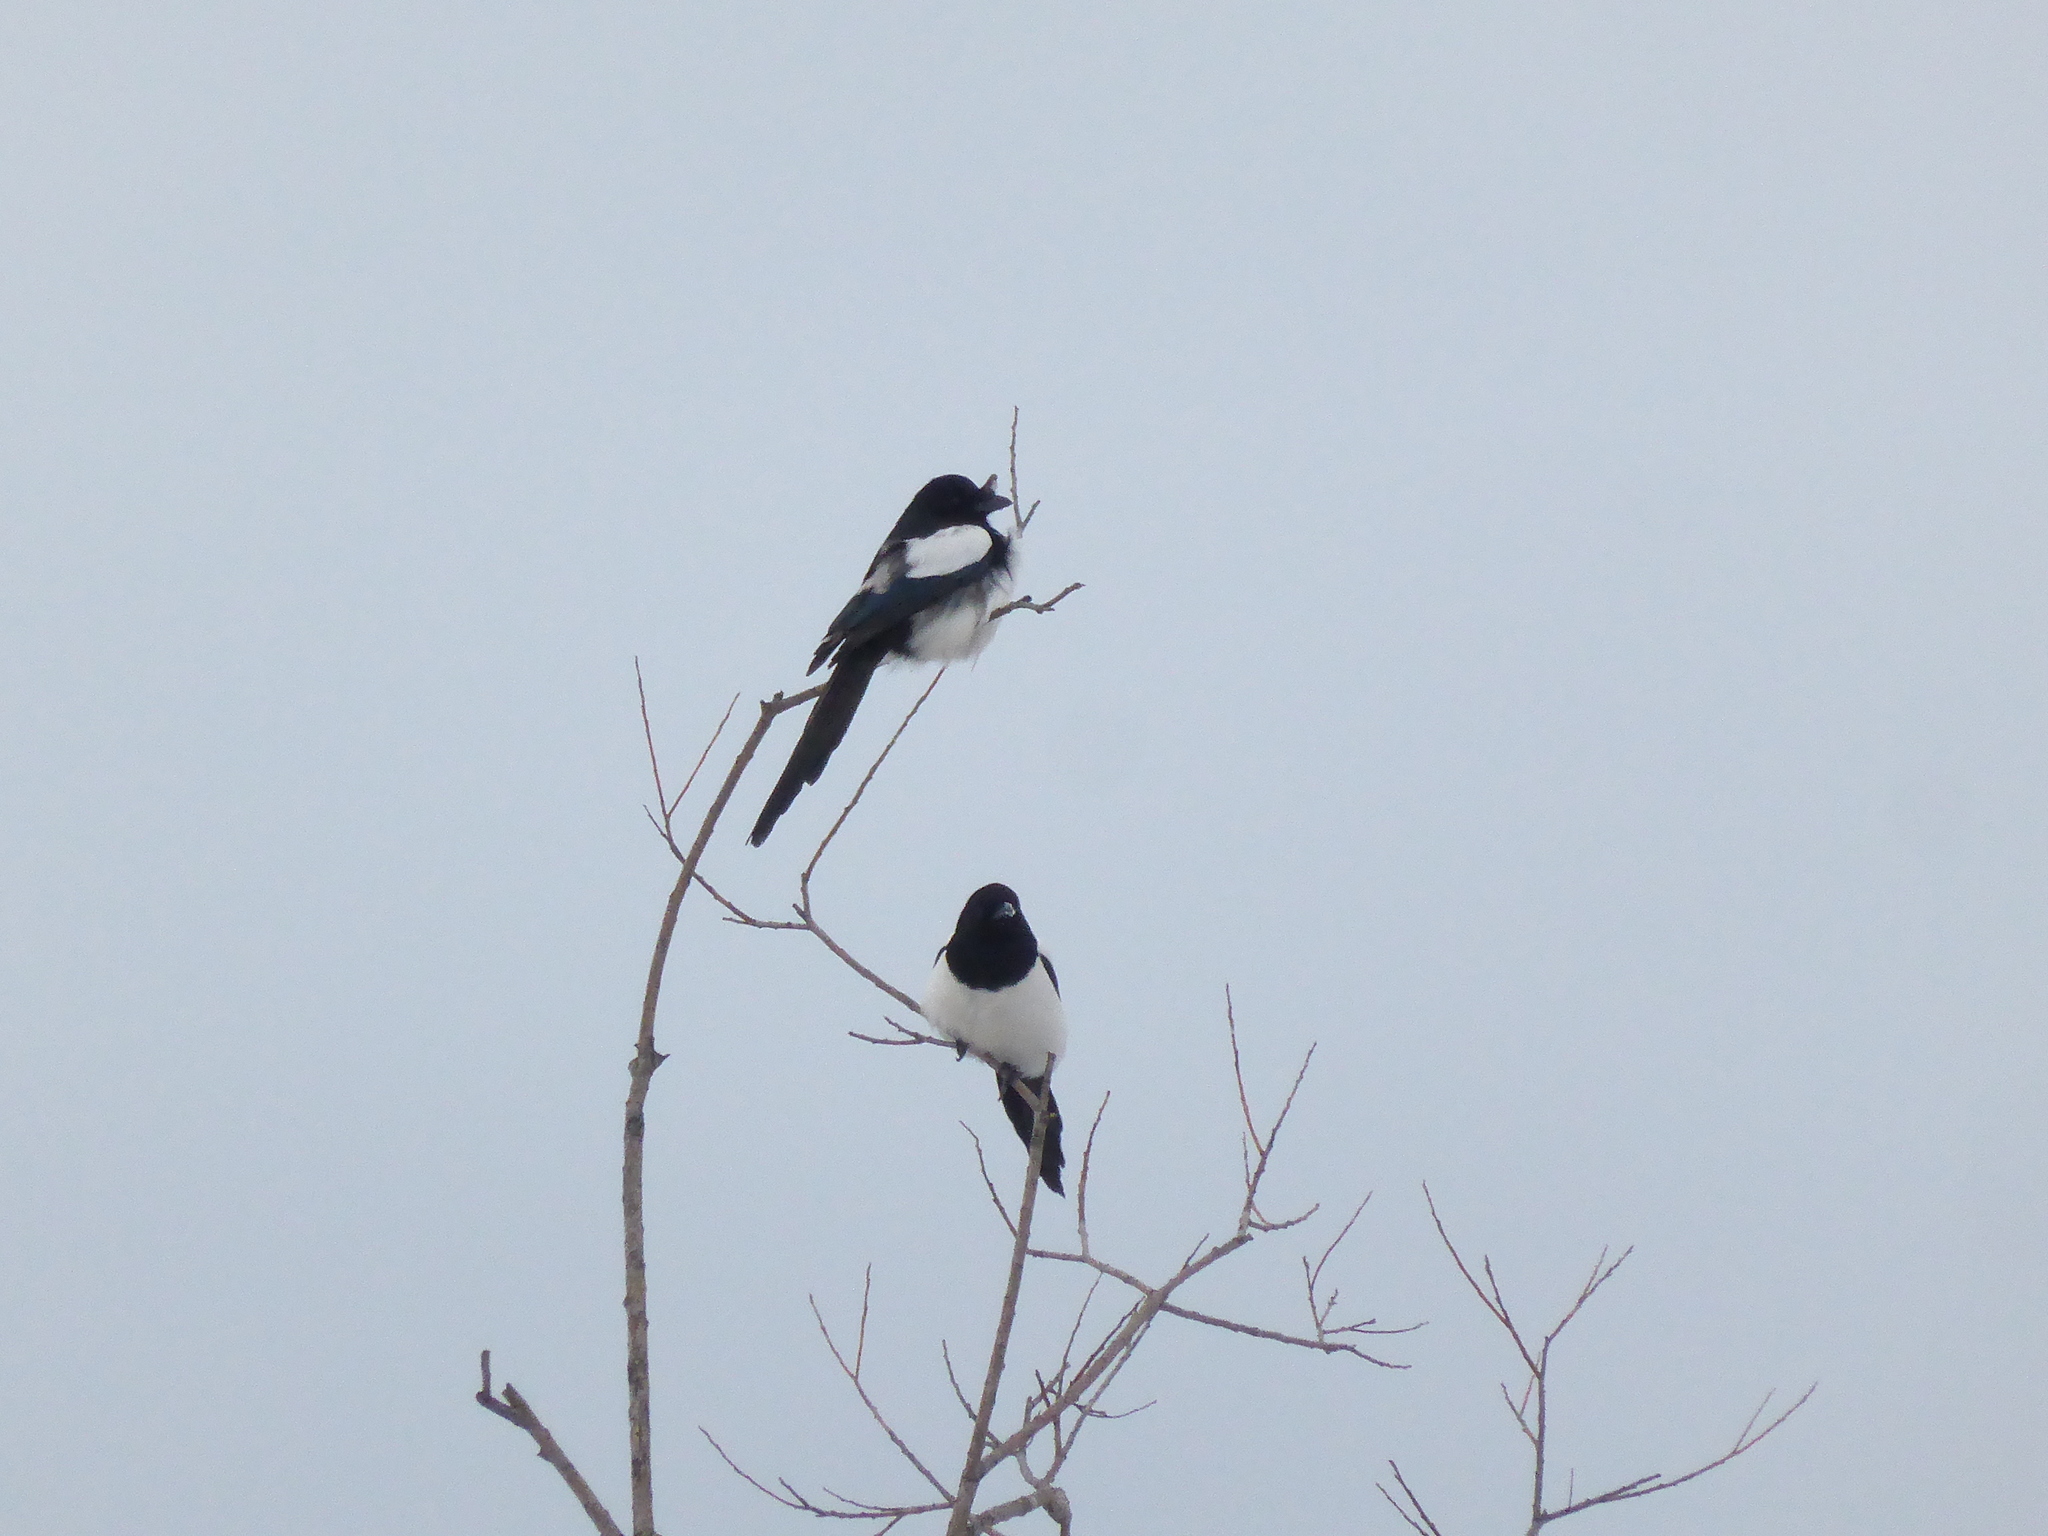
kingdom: Animalia
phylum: Chordata
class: Aves
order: Passeriformes
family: Corvidae
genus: Pica
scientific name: Pica pica
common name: Eurasian magpie
